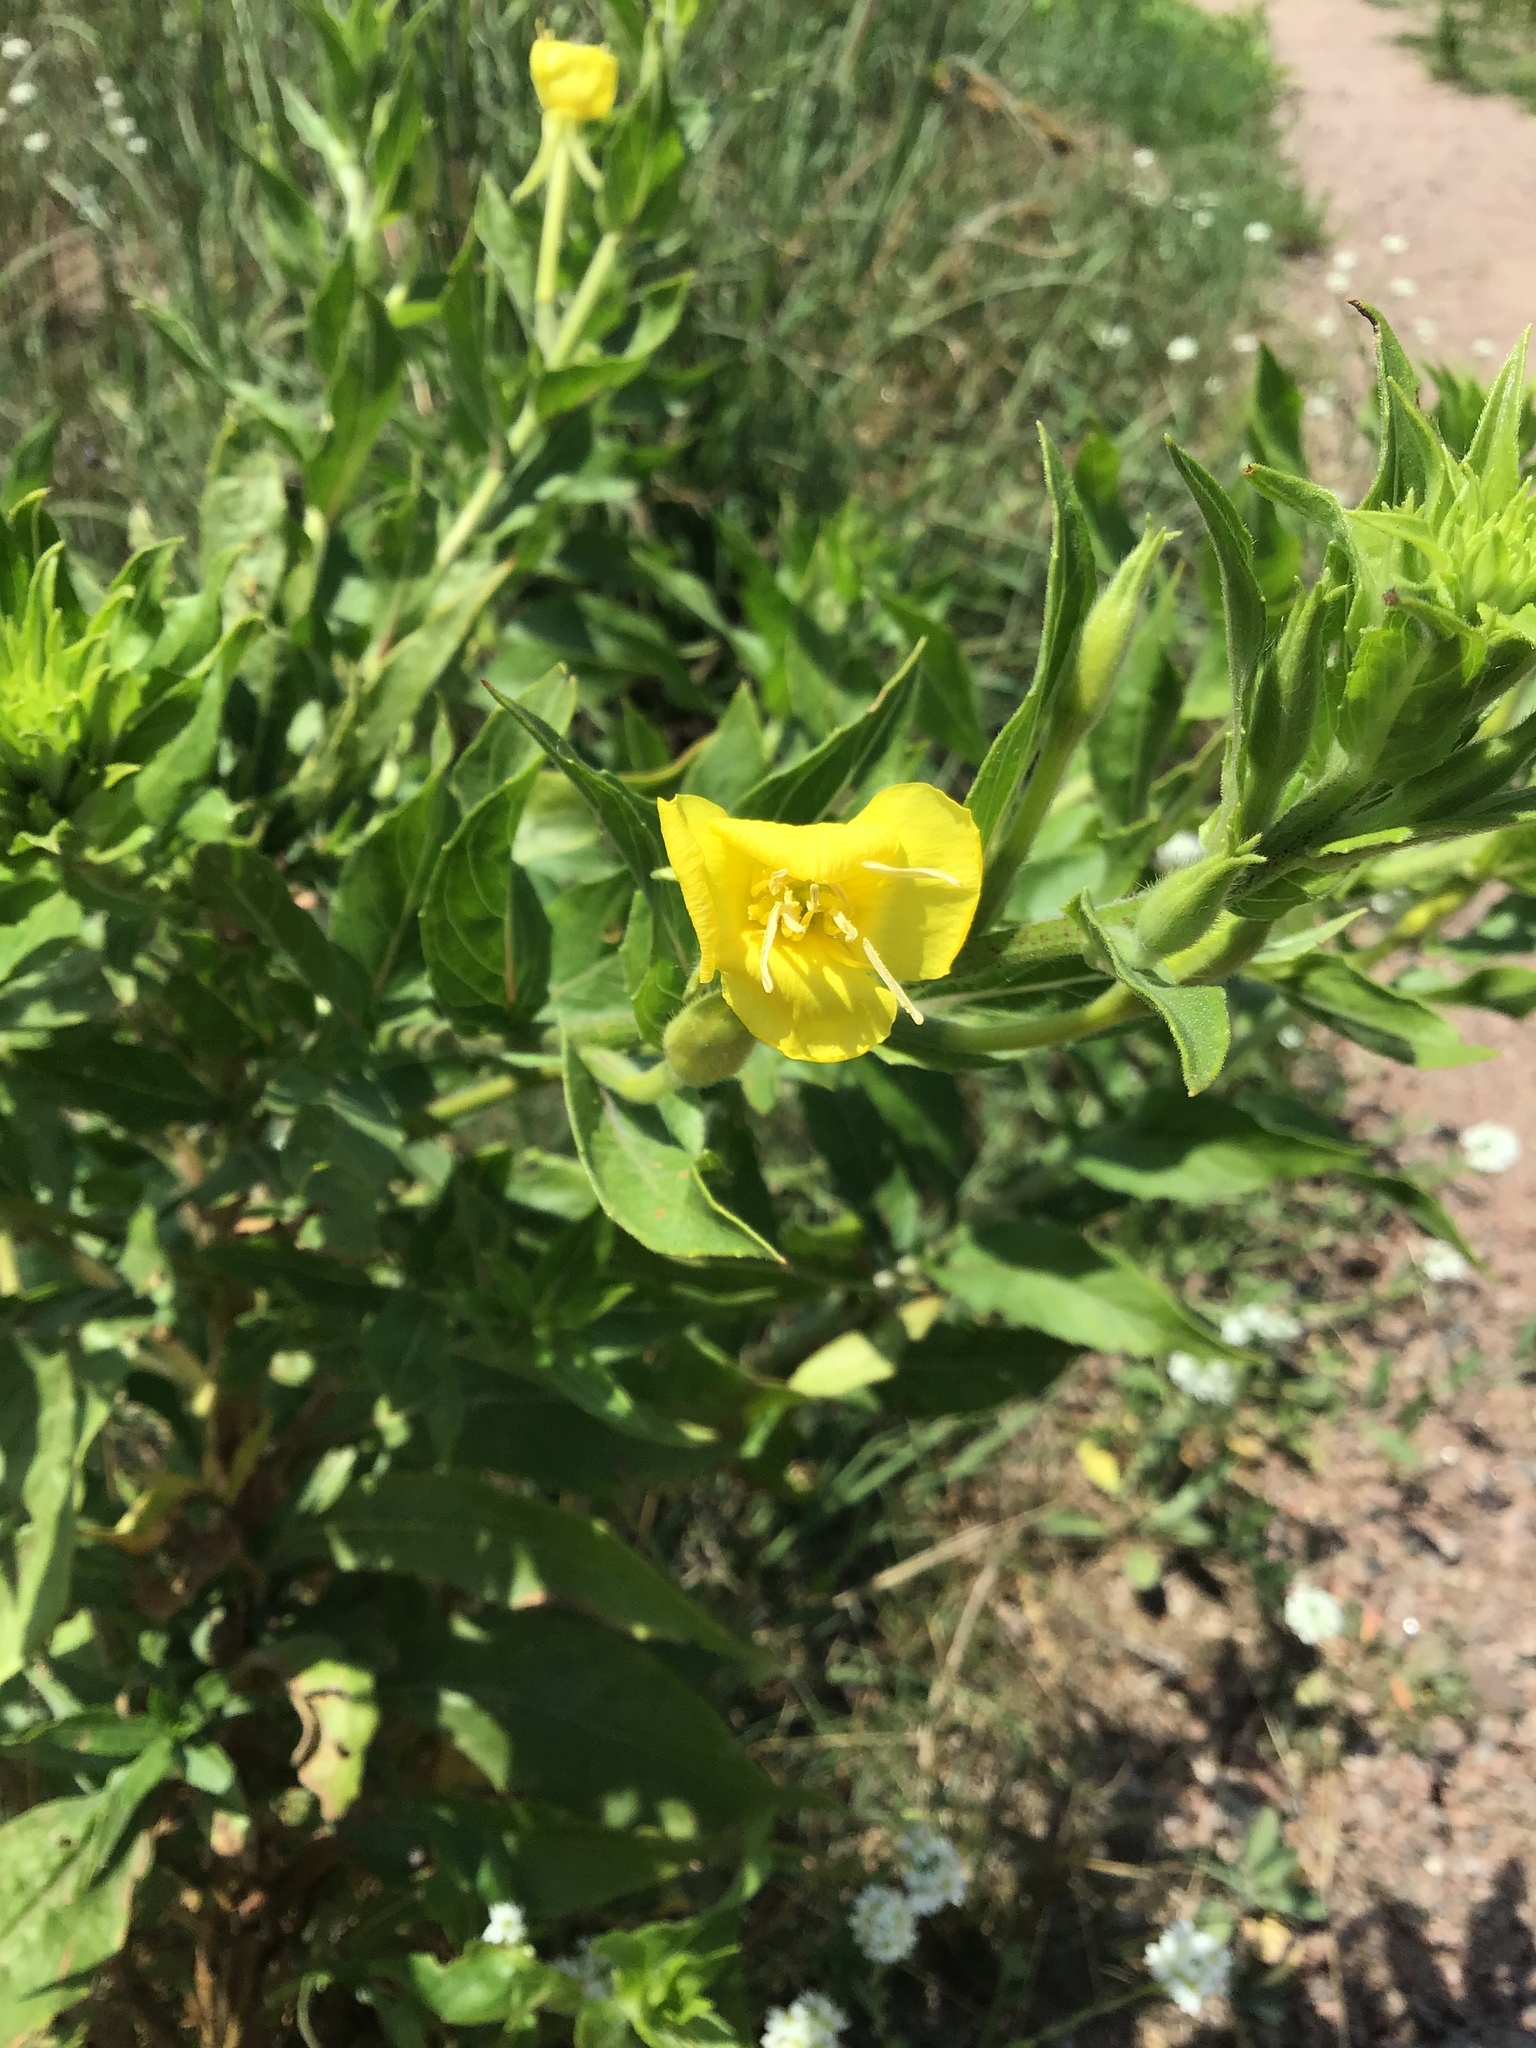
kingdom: Plantae
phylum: Tracheophyta
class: Magnoliopsida
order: Myrtales
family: Onagraceae
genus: Oenothera
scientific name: Oenothera biennis
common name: Common evening-primrose
